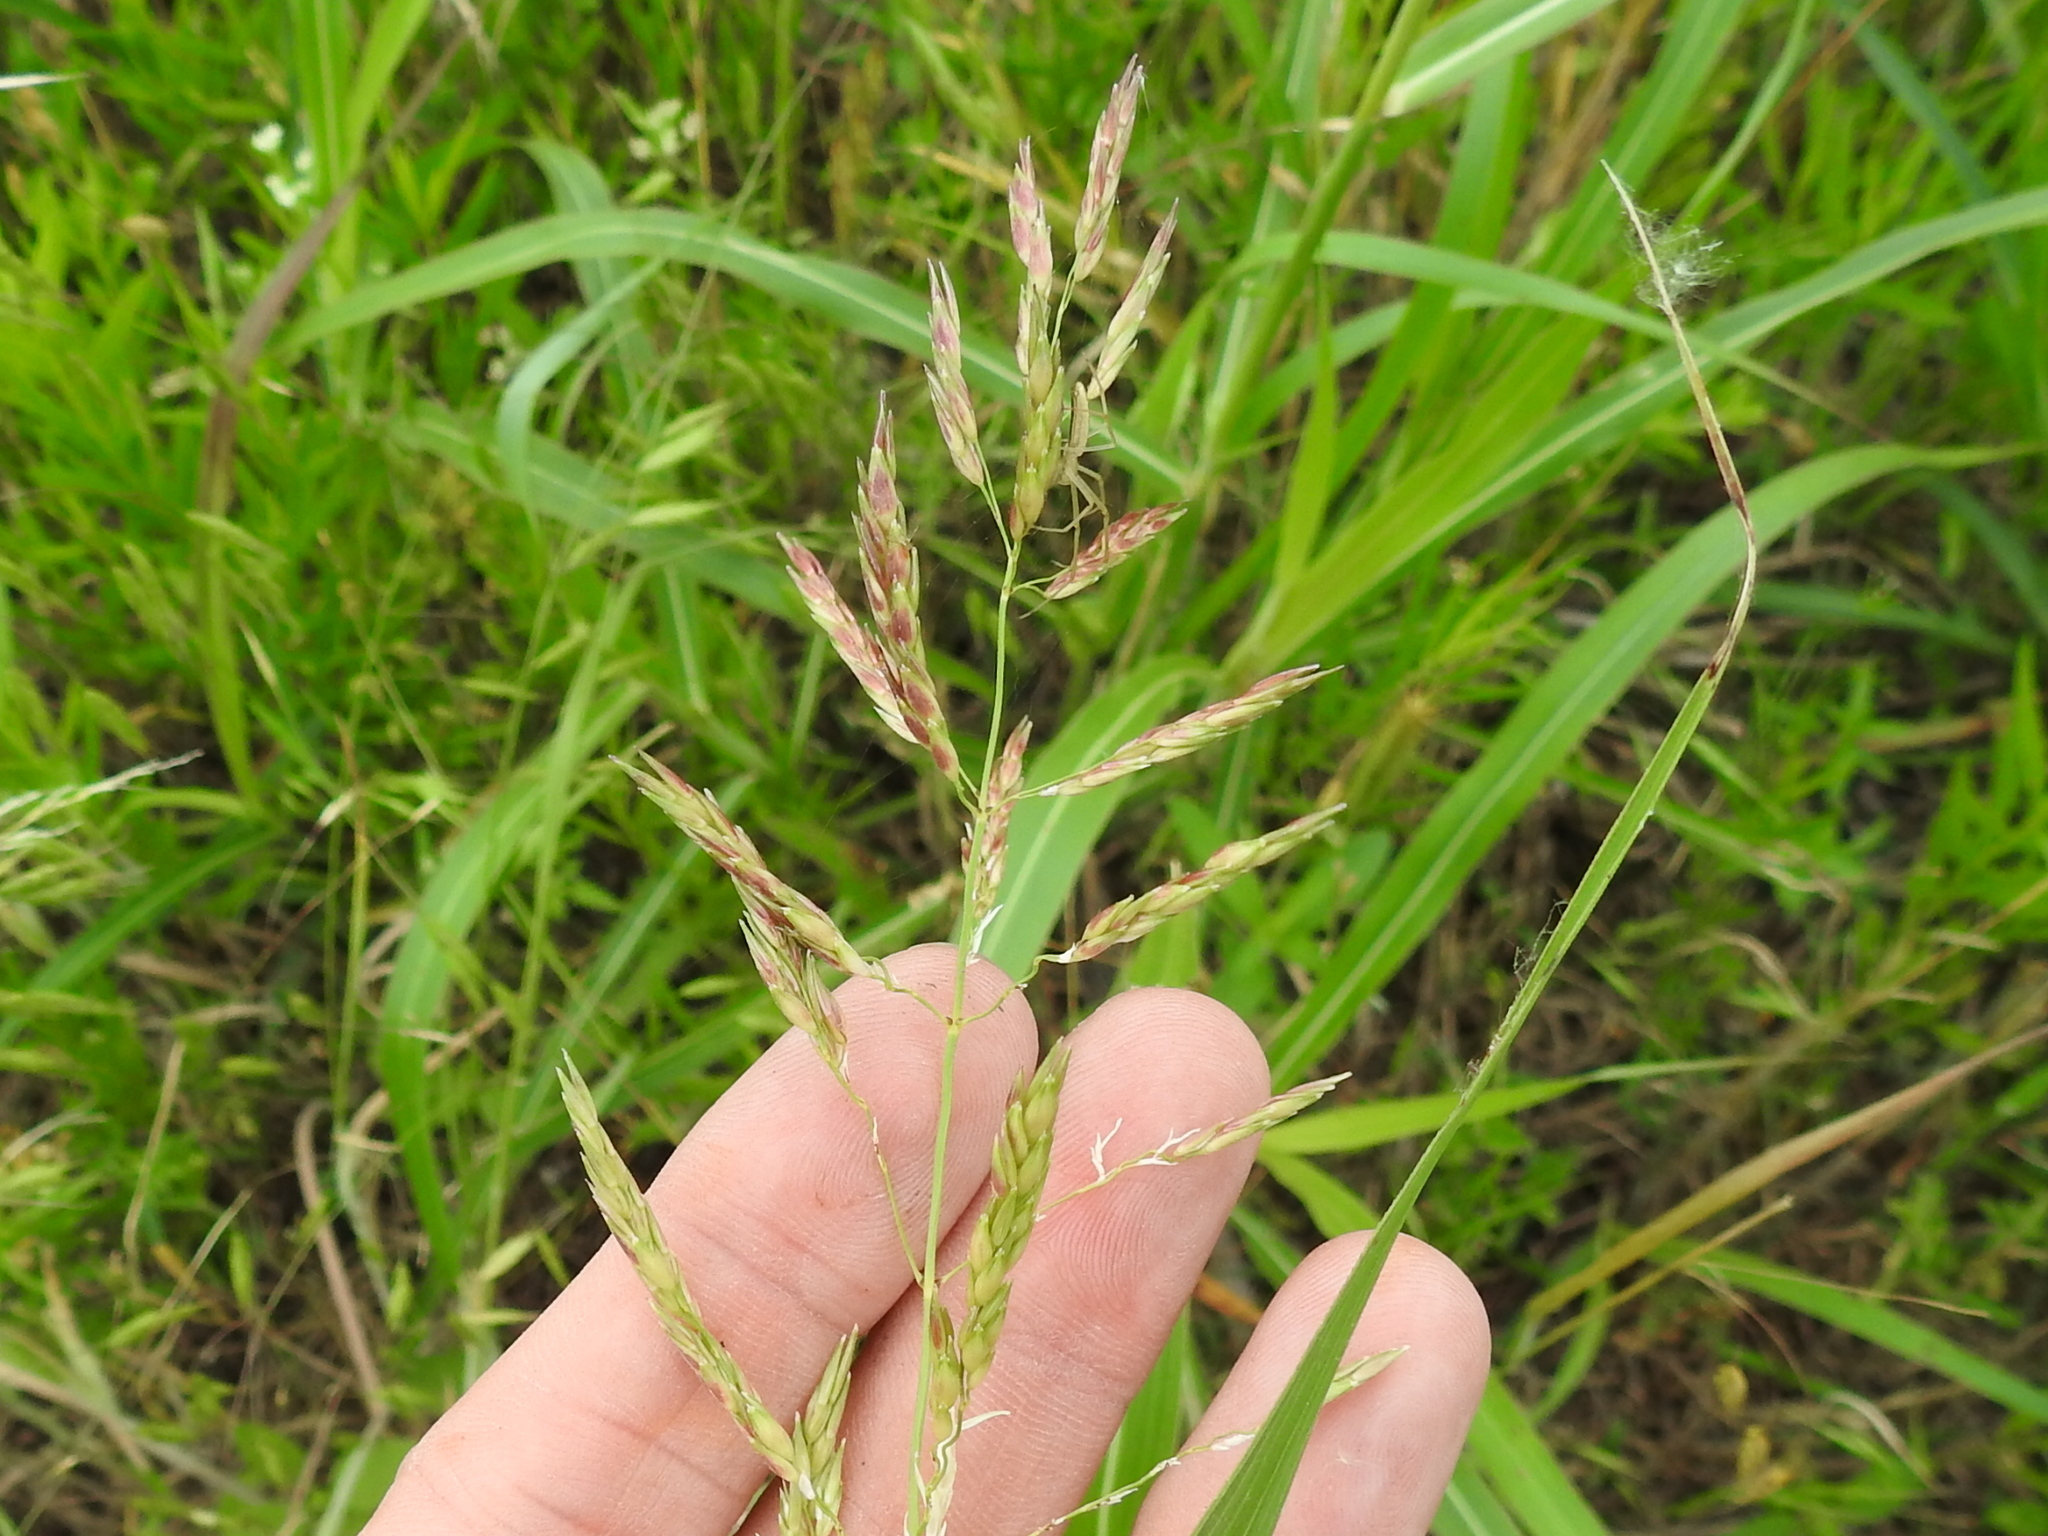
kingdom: Plantae
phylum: Tracheophyta
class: Liliopsida
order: Poales
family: Poaceae
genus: Sorghum
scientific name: Sorghum halepense
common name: Johnson-grass
